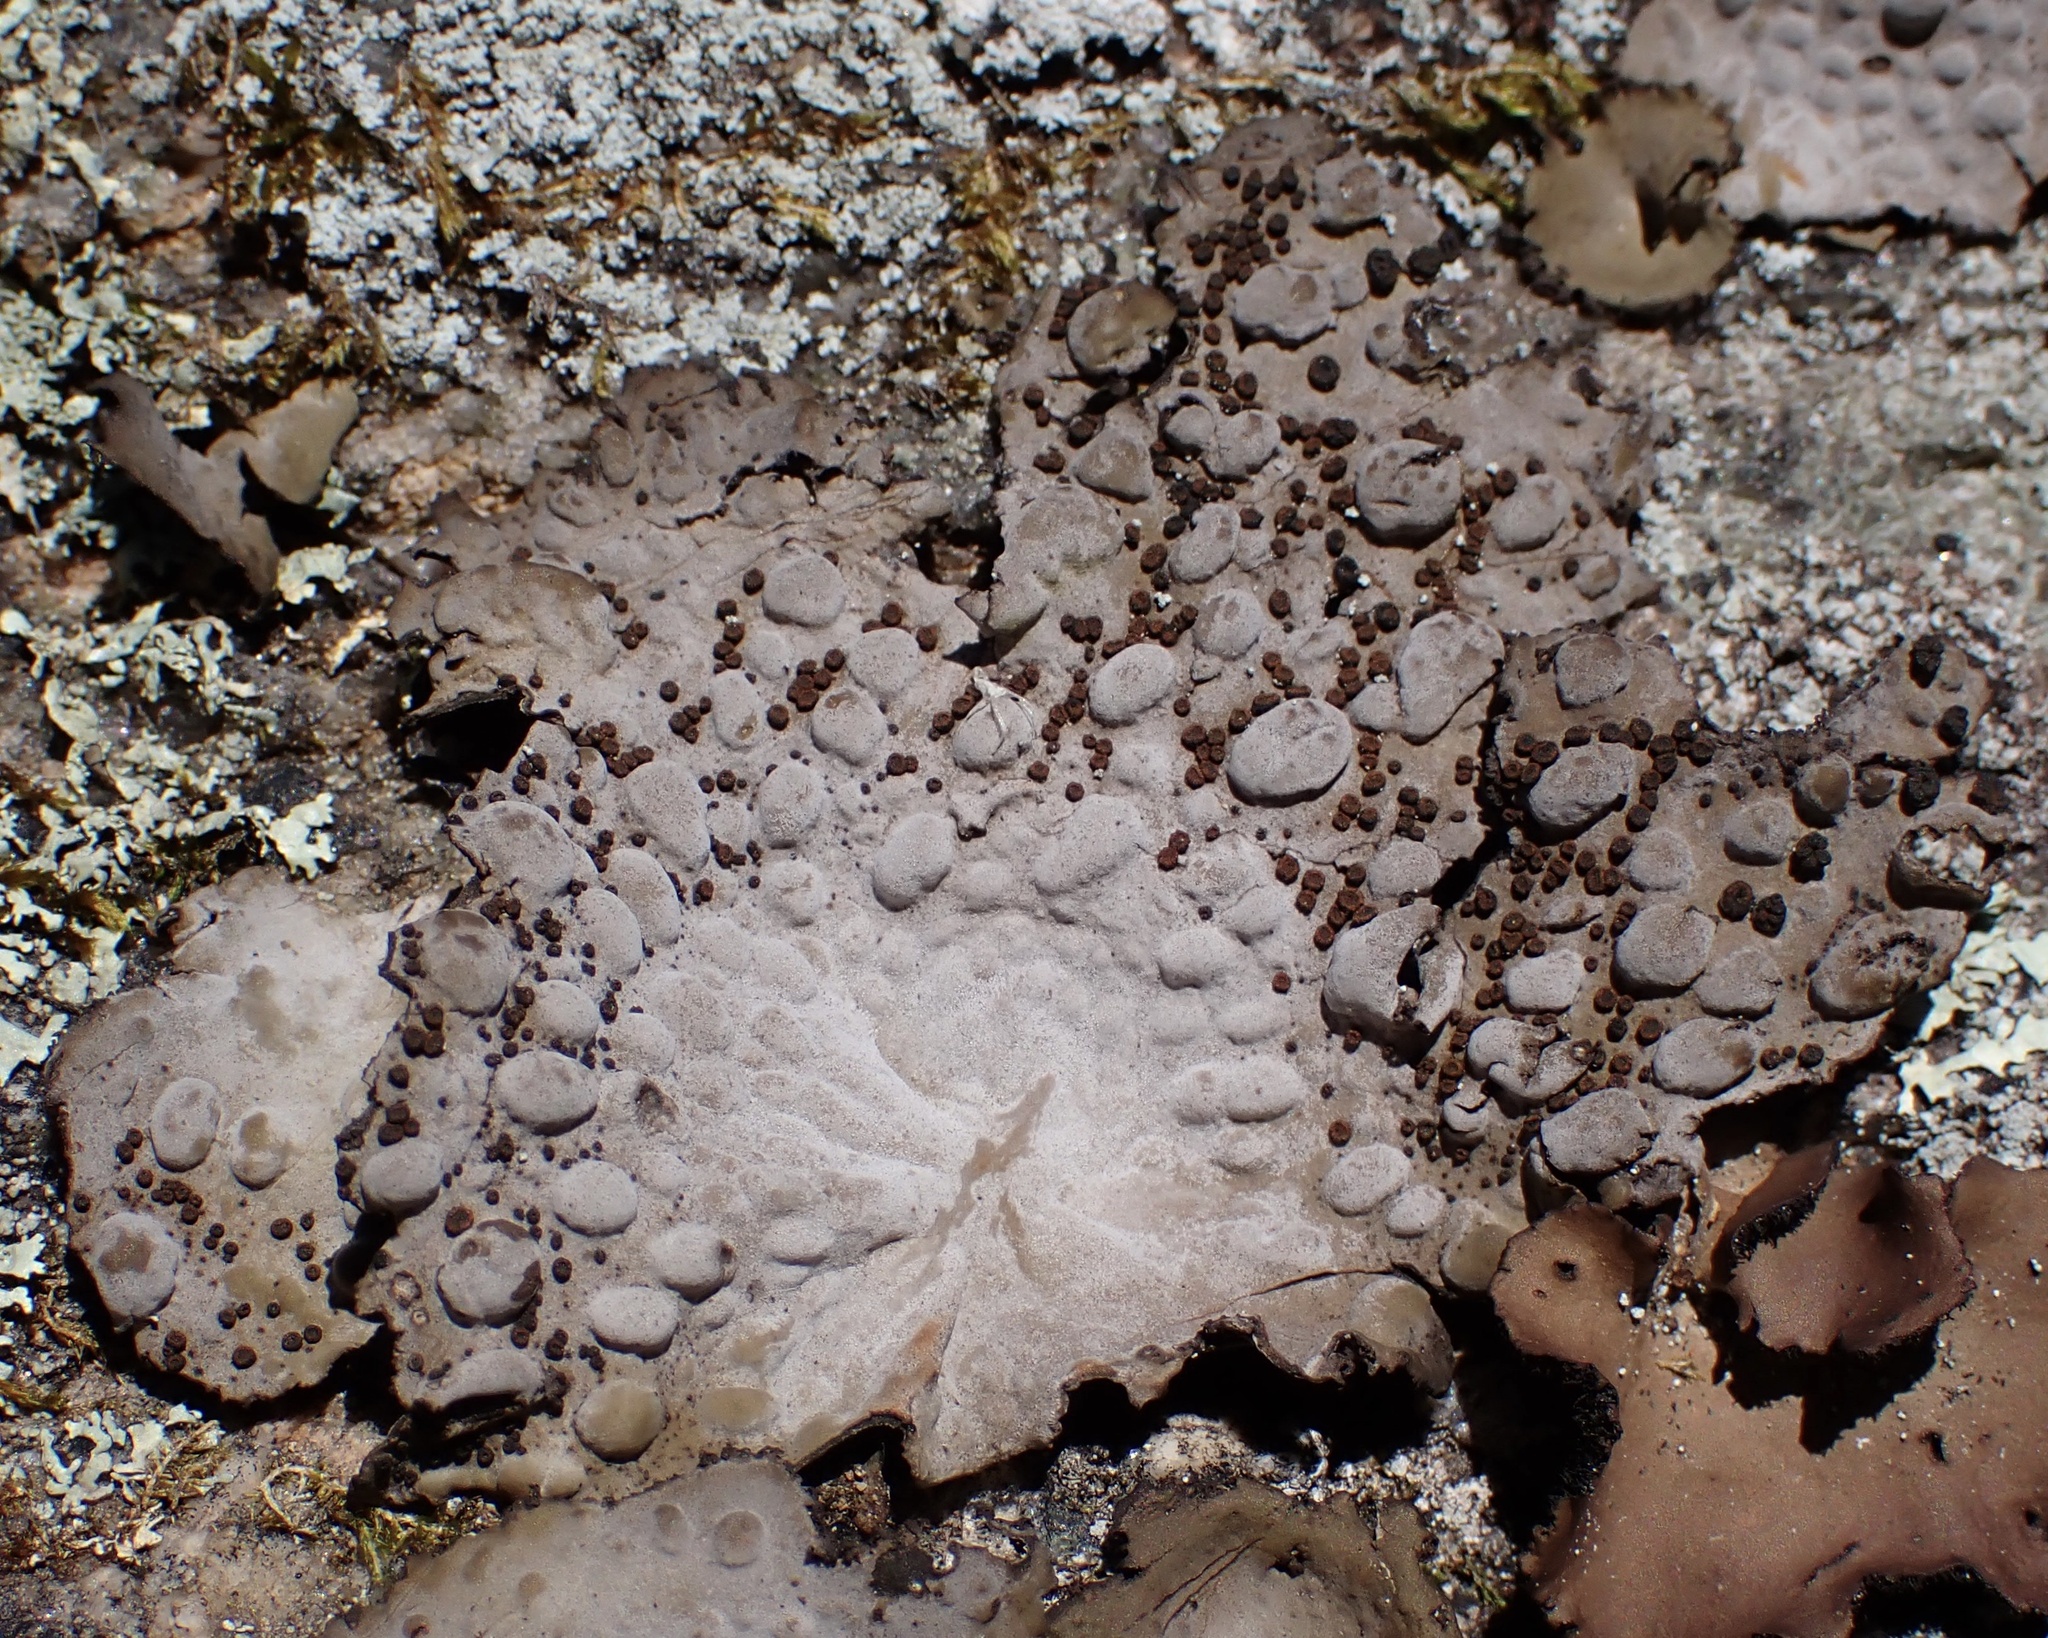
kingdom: Fungi
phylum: Ascomycota
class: Lecanoromycetes
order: Umbilicariales
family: Umbilicariaceae
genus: Lasallia
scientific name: Lasallia papulosa
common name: Common toadskin lichen
